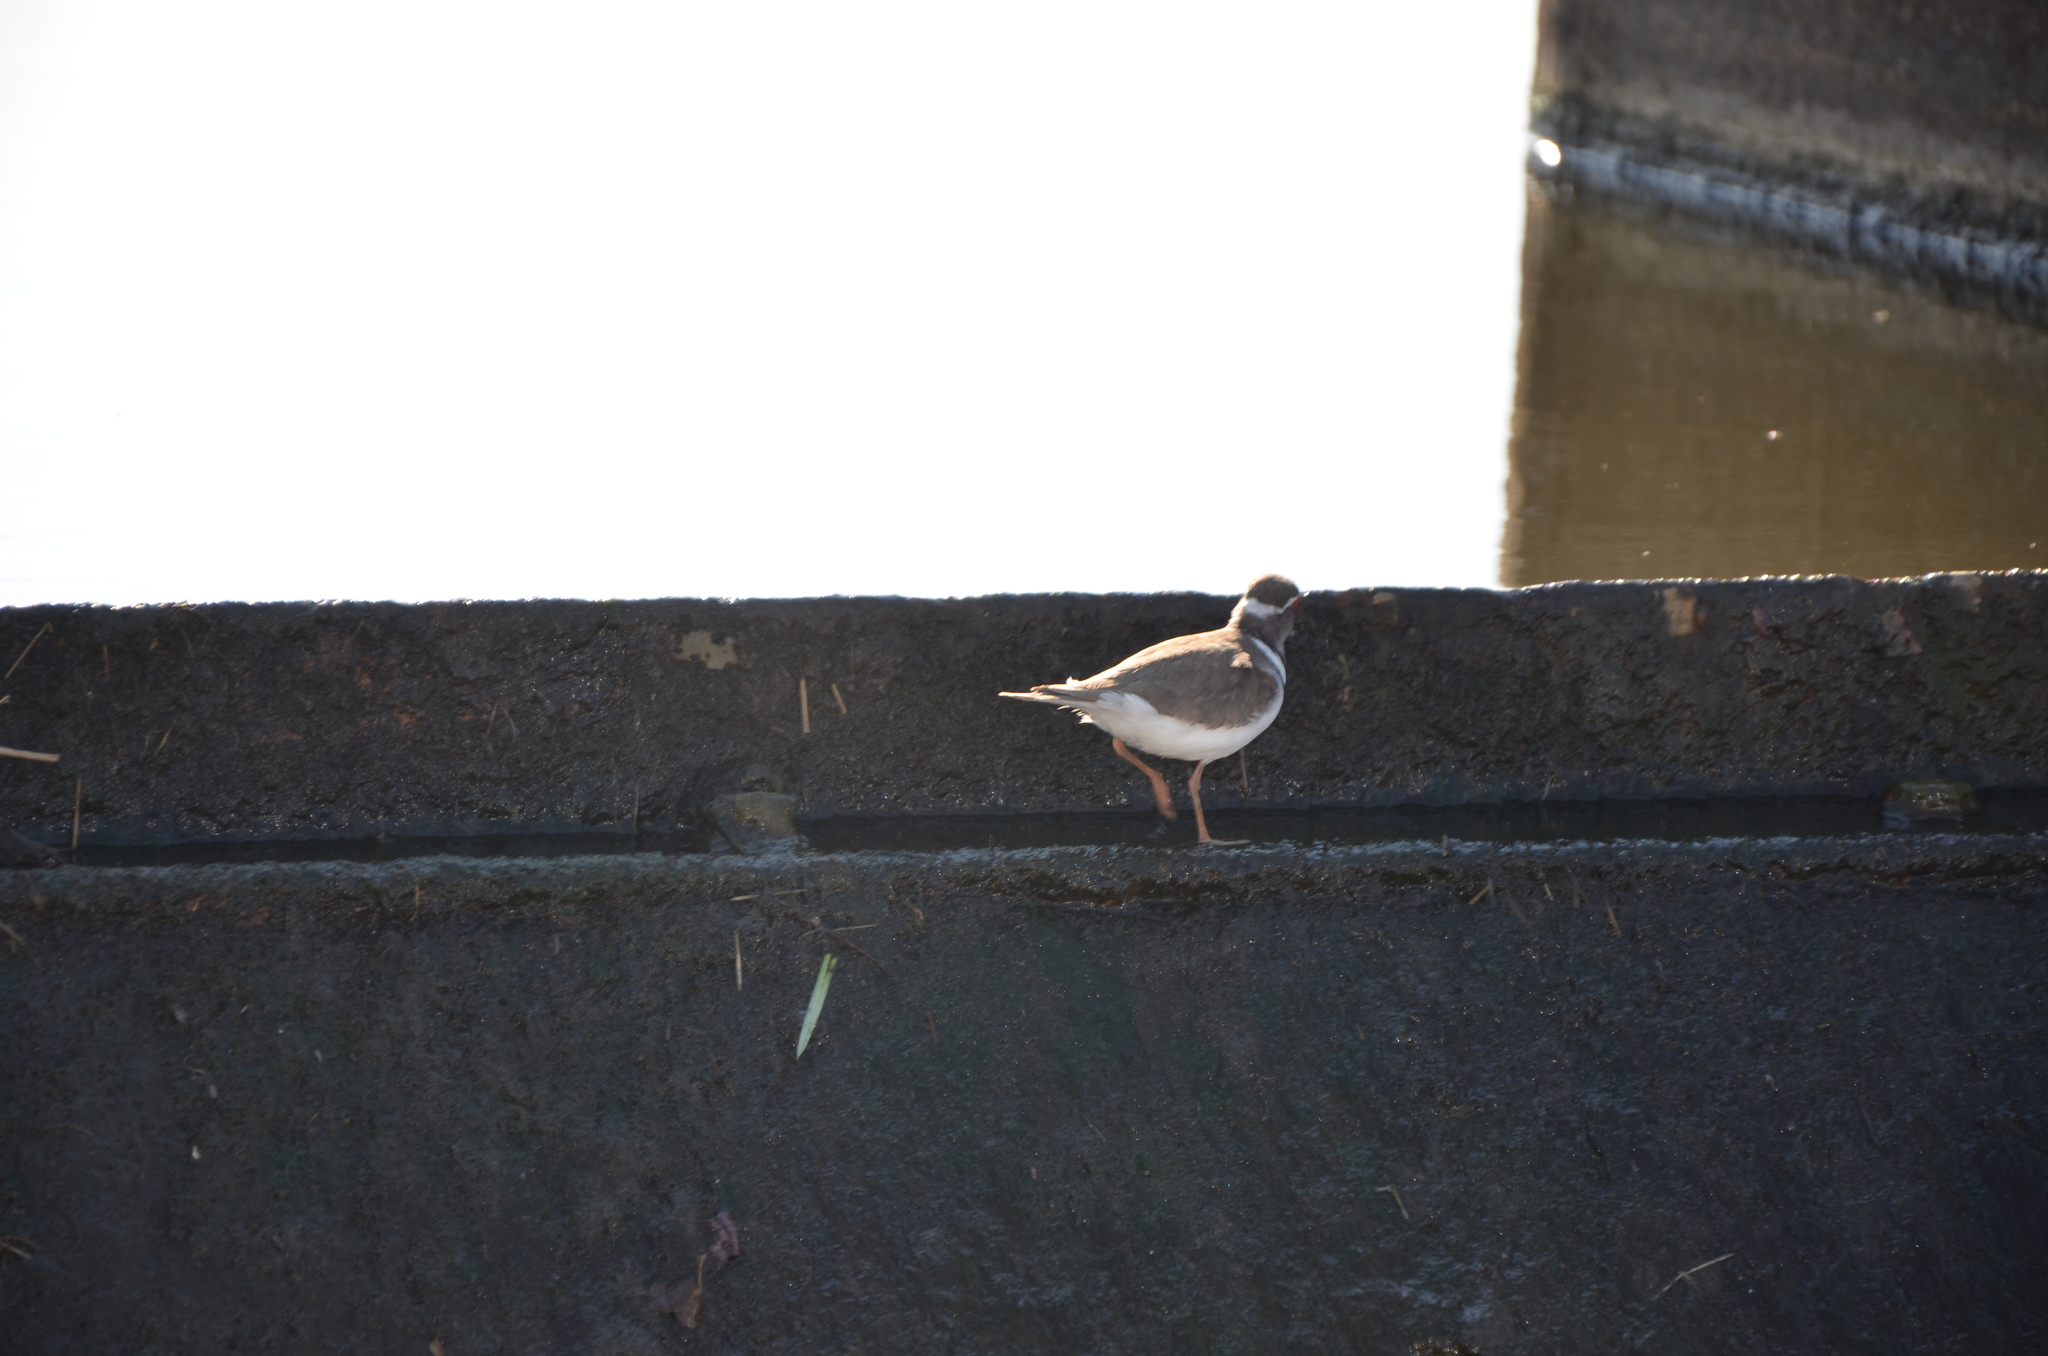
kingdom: Animalia
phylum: Chordata
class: Aves
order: Charadriiformes
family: Charadriidae
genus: Charadrius
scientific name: Charadrius tricollaris
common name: Three-banded plover
